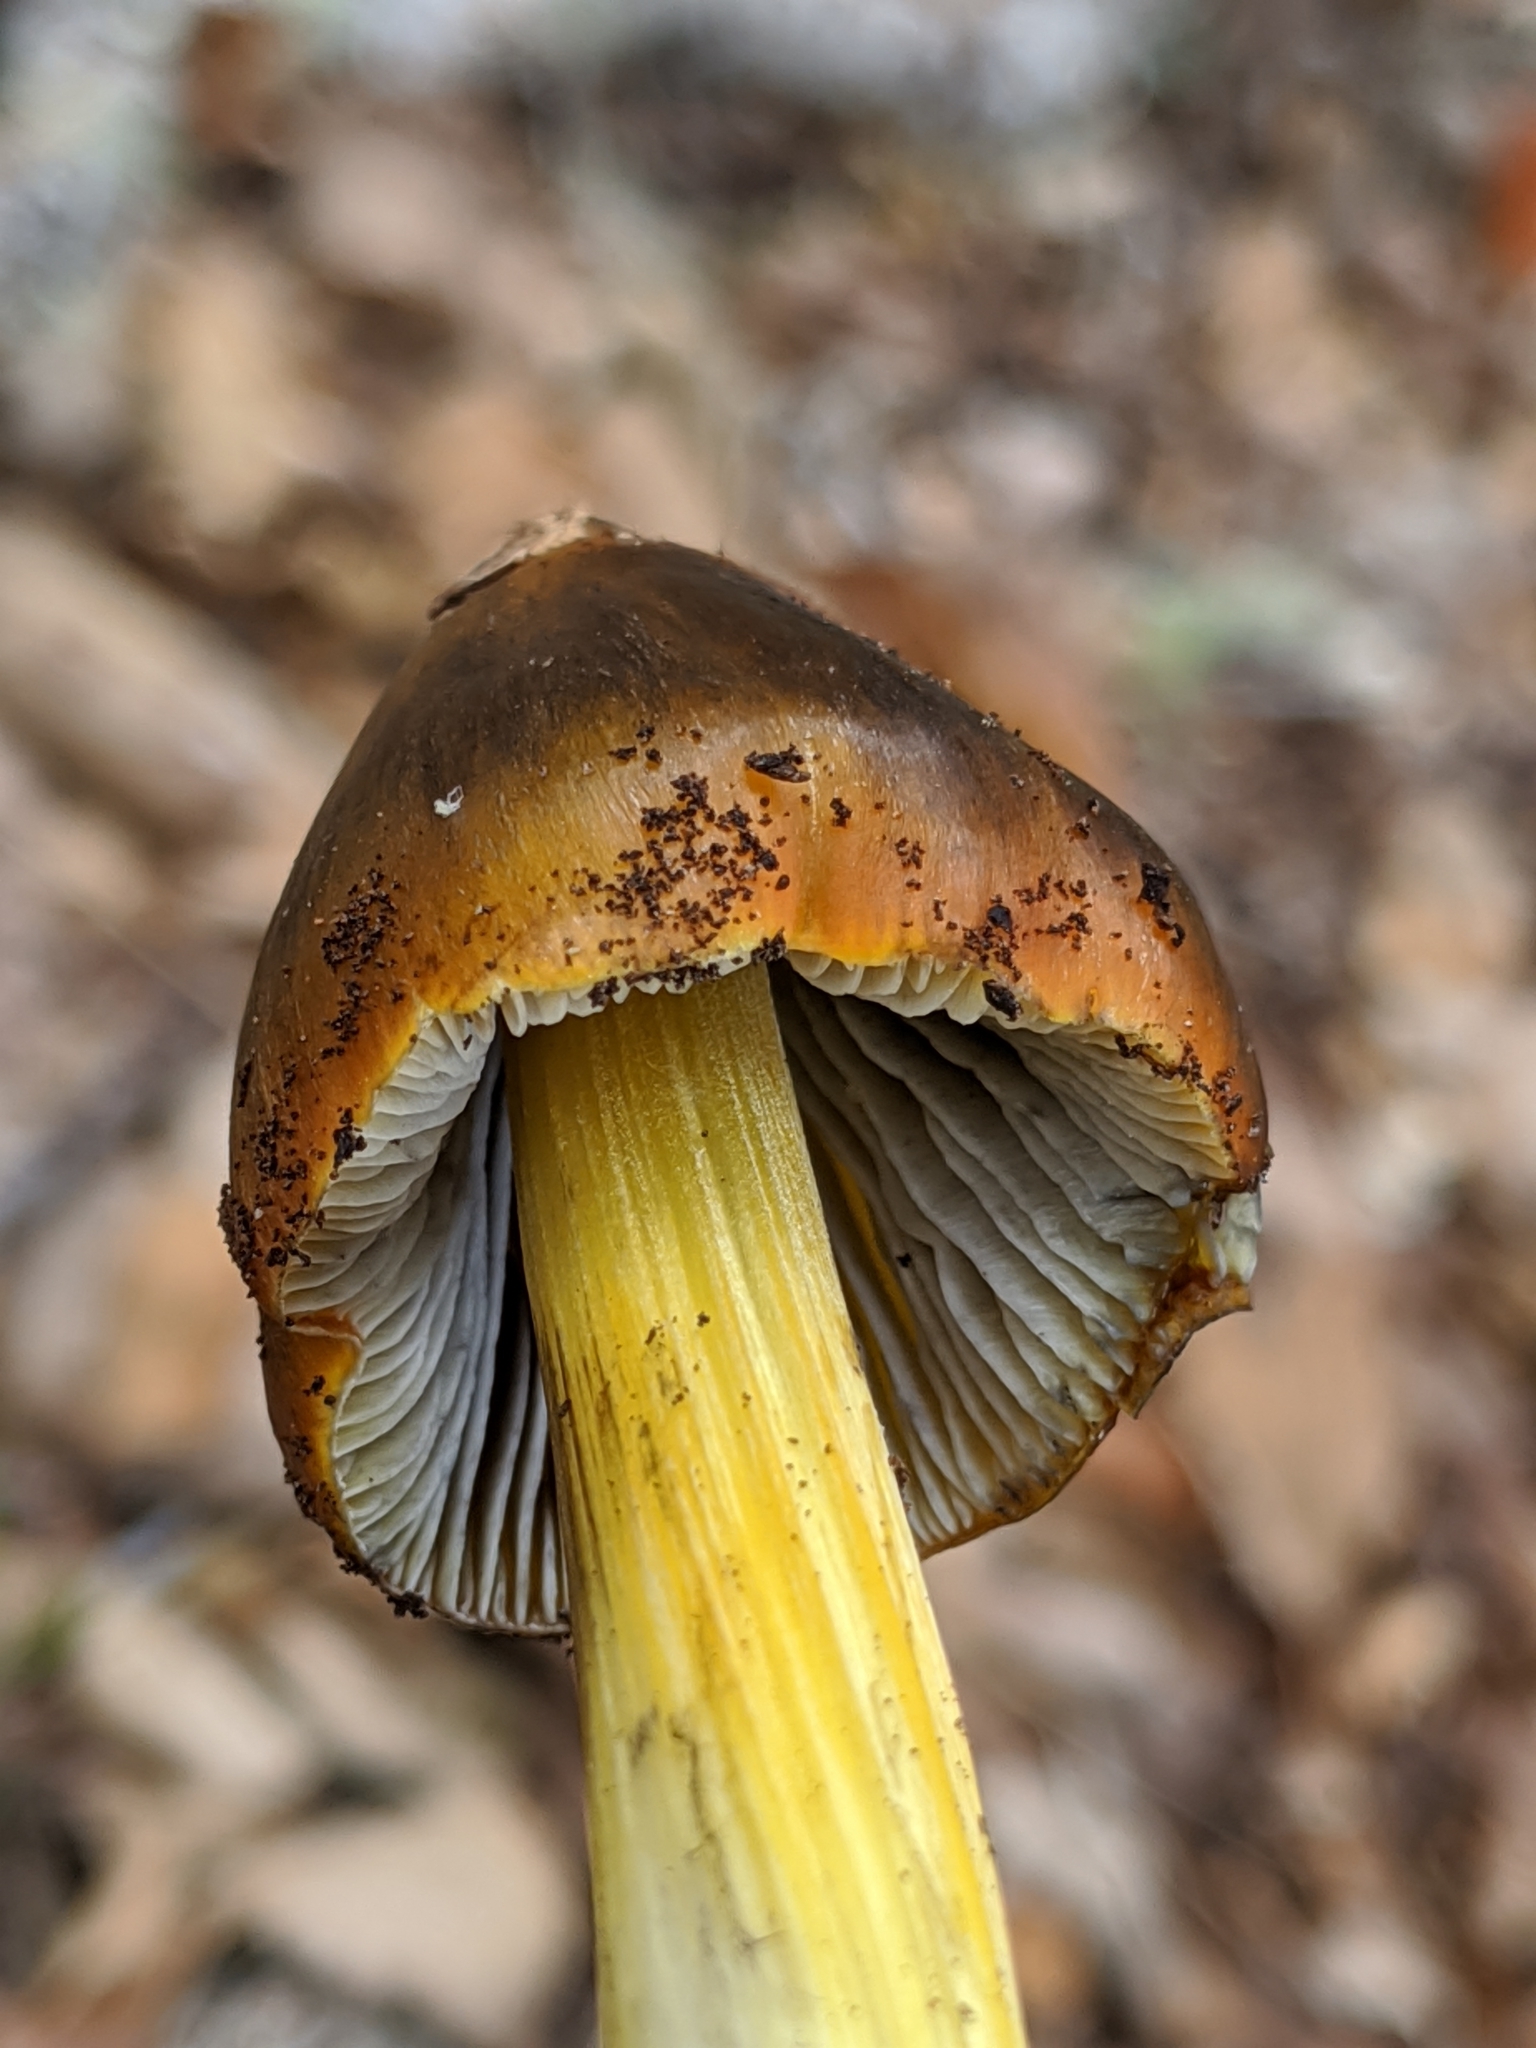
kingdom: Fungi
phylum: Basidiomycota
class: Agaricomycetes
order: Agaricales
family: Hygrophoraceae
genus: Hygrocybe
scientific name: Hygrocybe singeri
